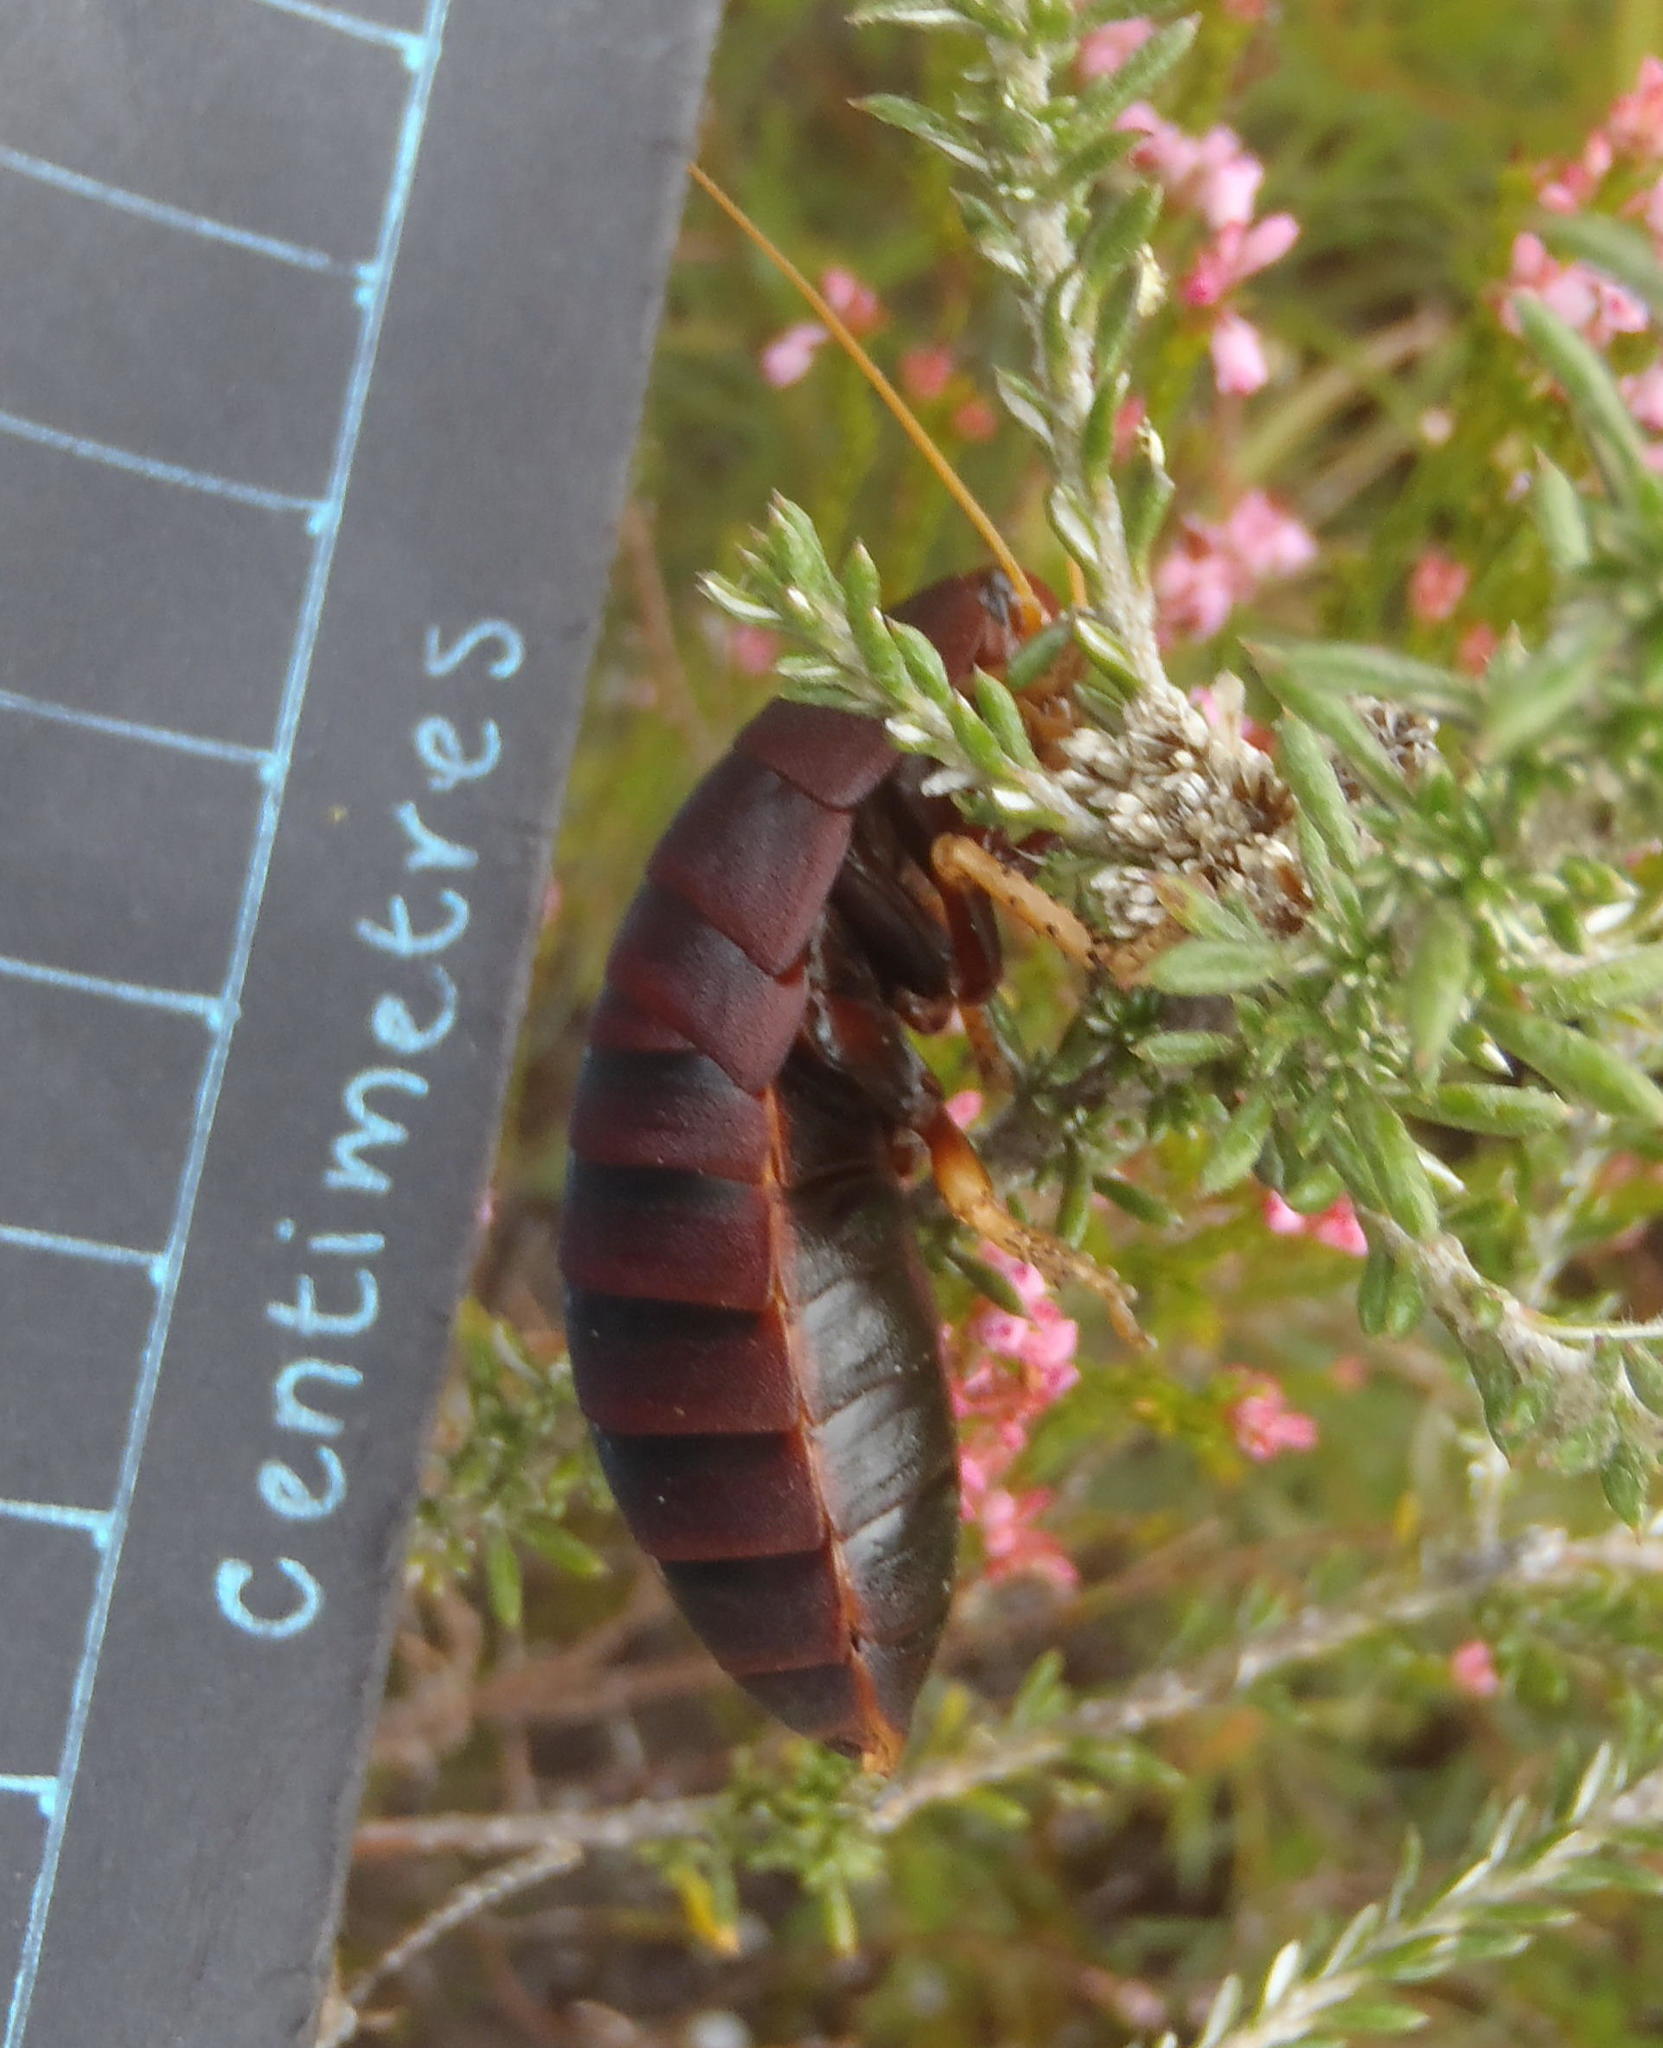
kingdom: Animalia
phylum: Arthropoda
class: Insecta
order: Blattodea
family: Blaberidae
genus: Aptera
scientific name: Aptera fusca
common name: Cape mountain cockroach
